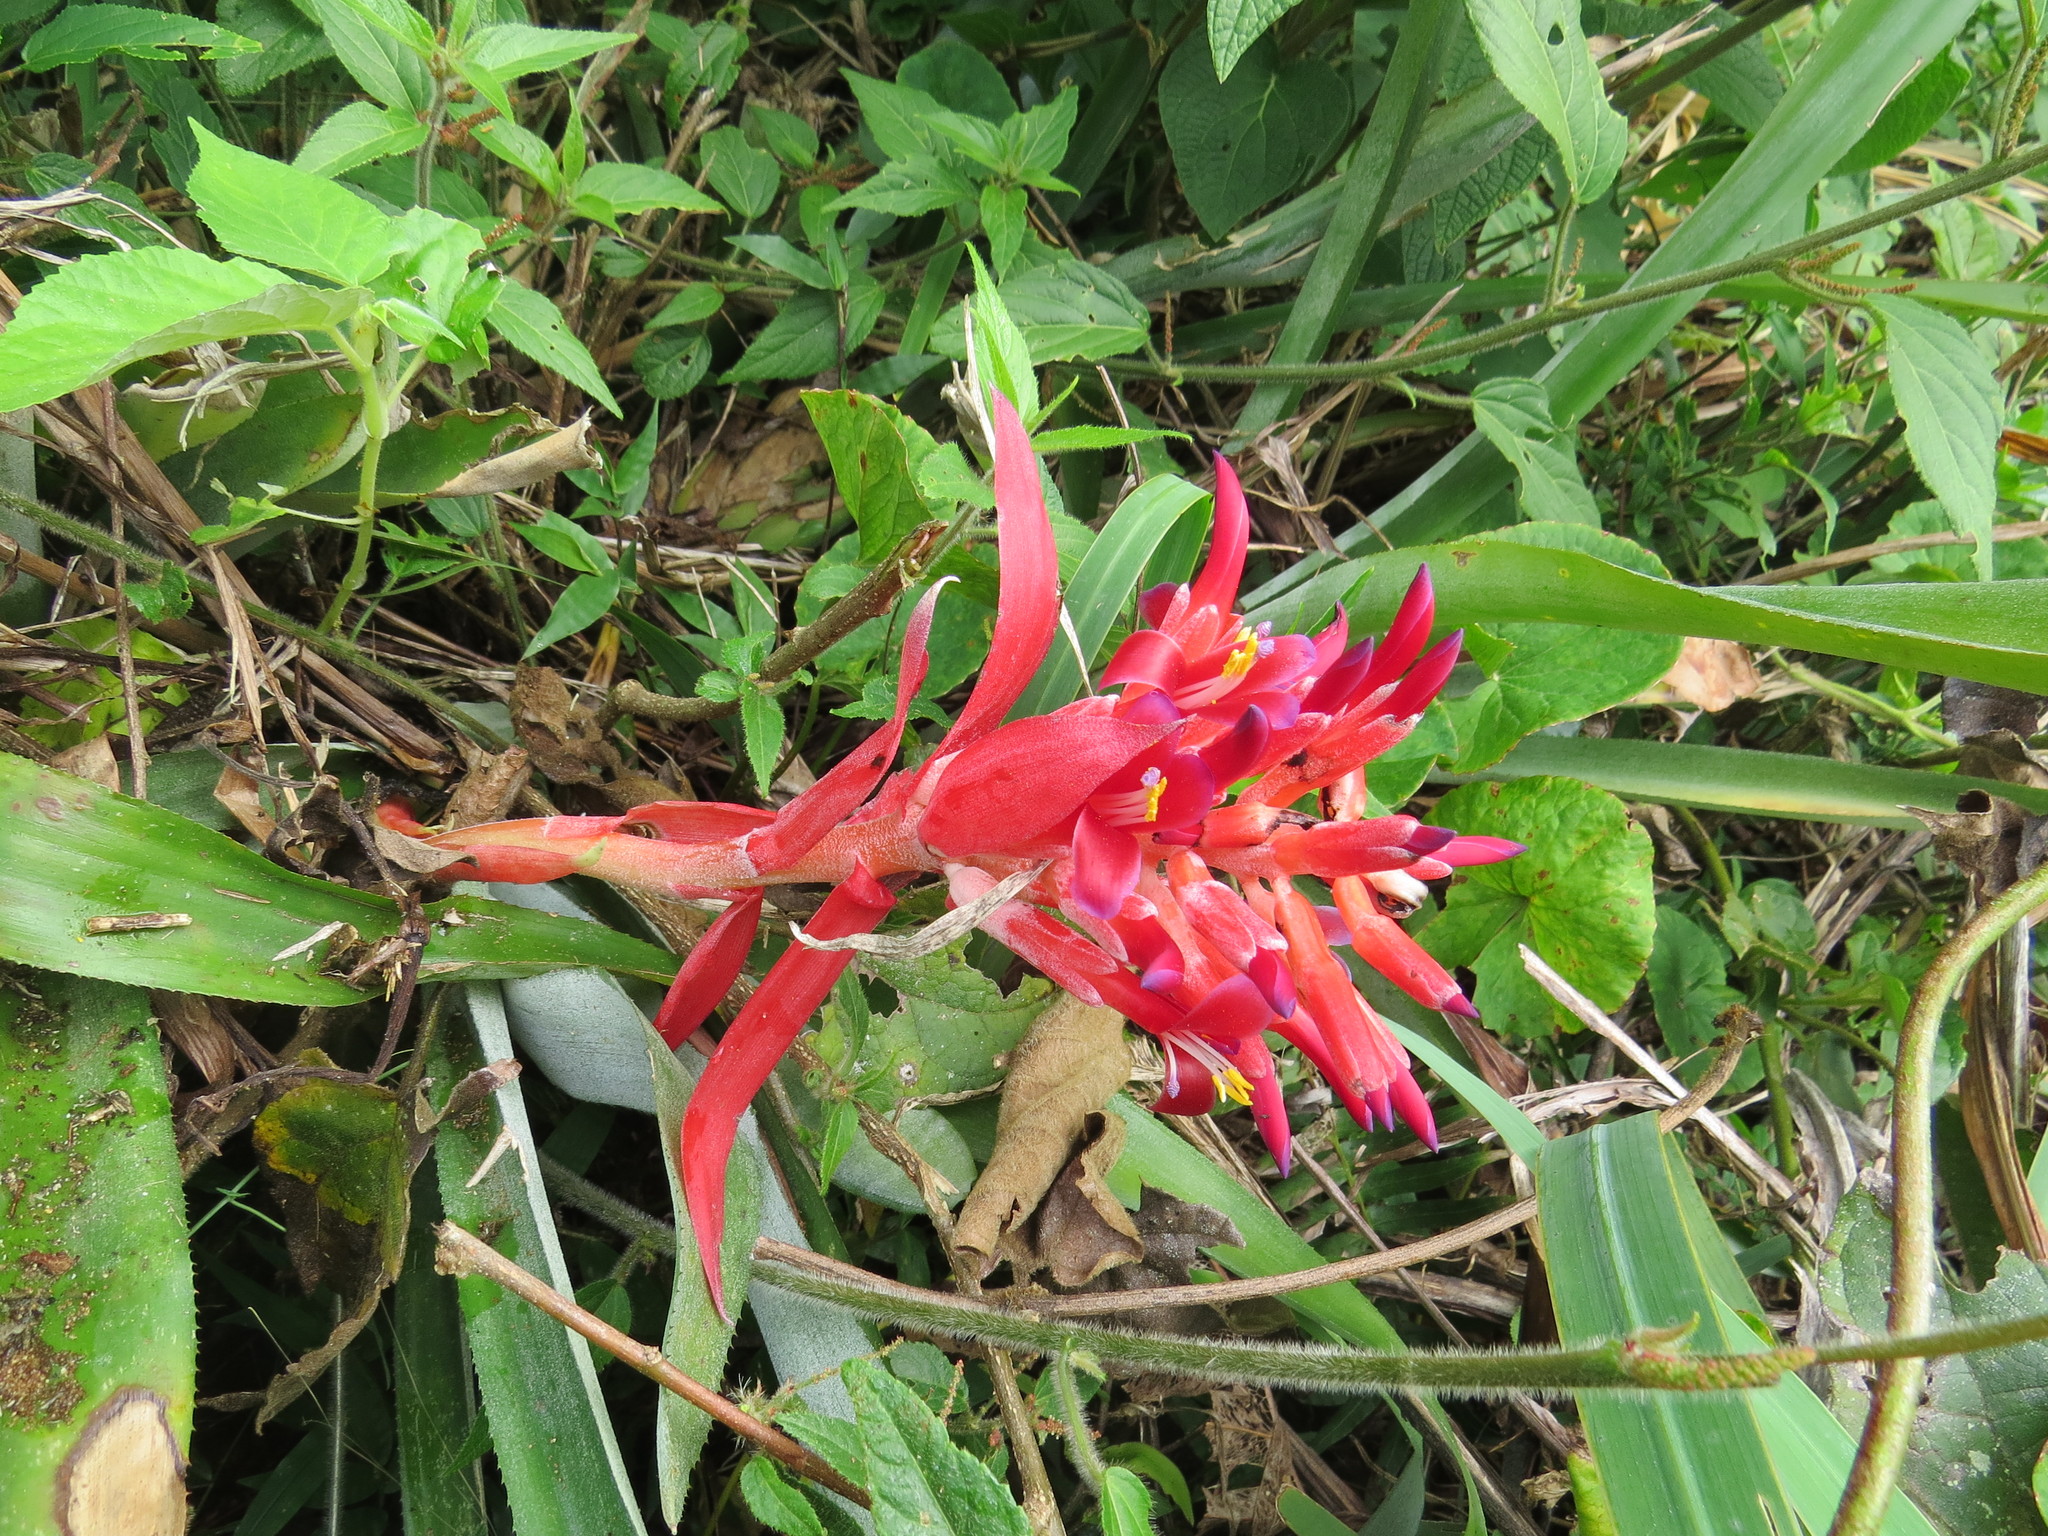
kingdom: Plantae
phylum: Tracheophyta
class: Liliopsida
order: Poales
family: Bromeliaceae
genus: Billbergia
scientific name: Billbergia pyramidalis
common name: Foolproofplant
